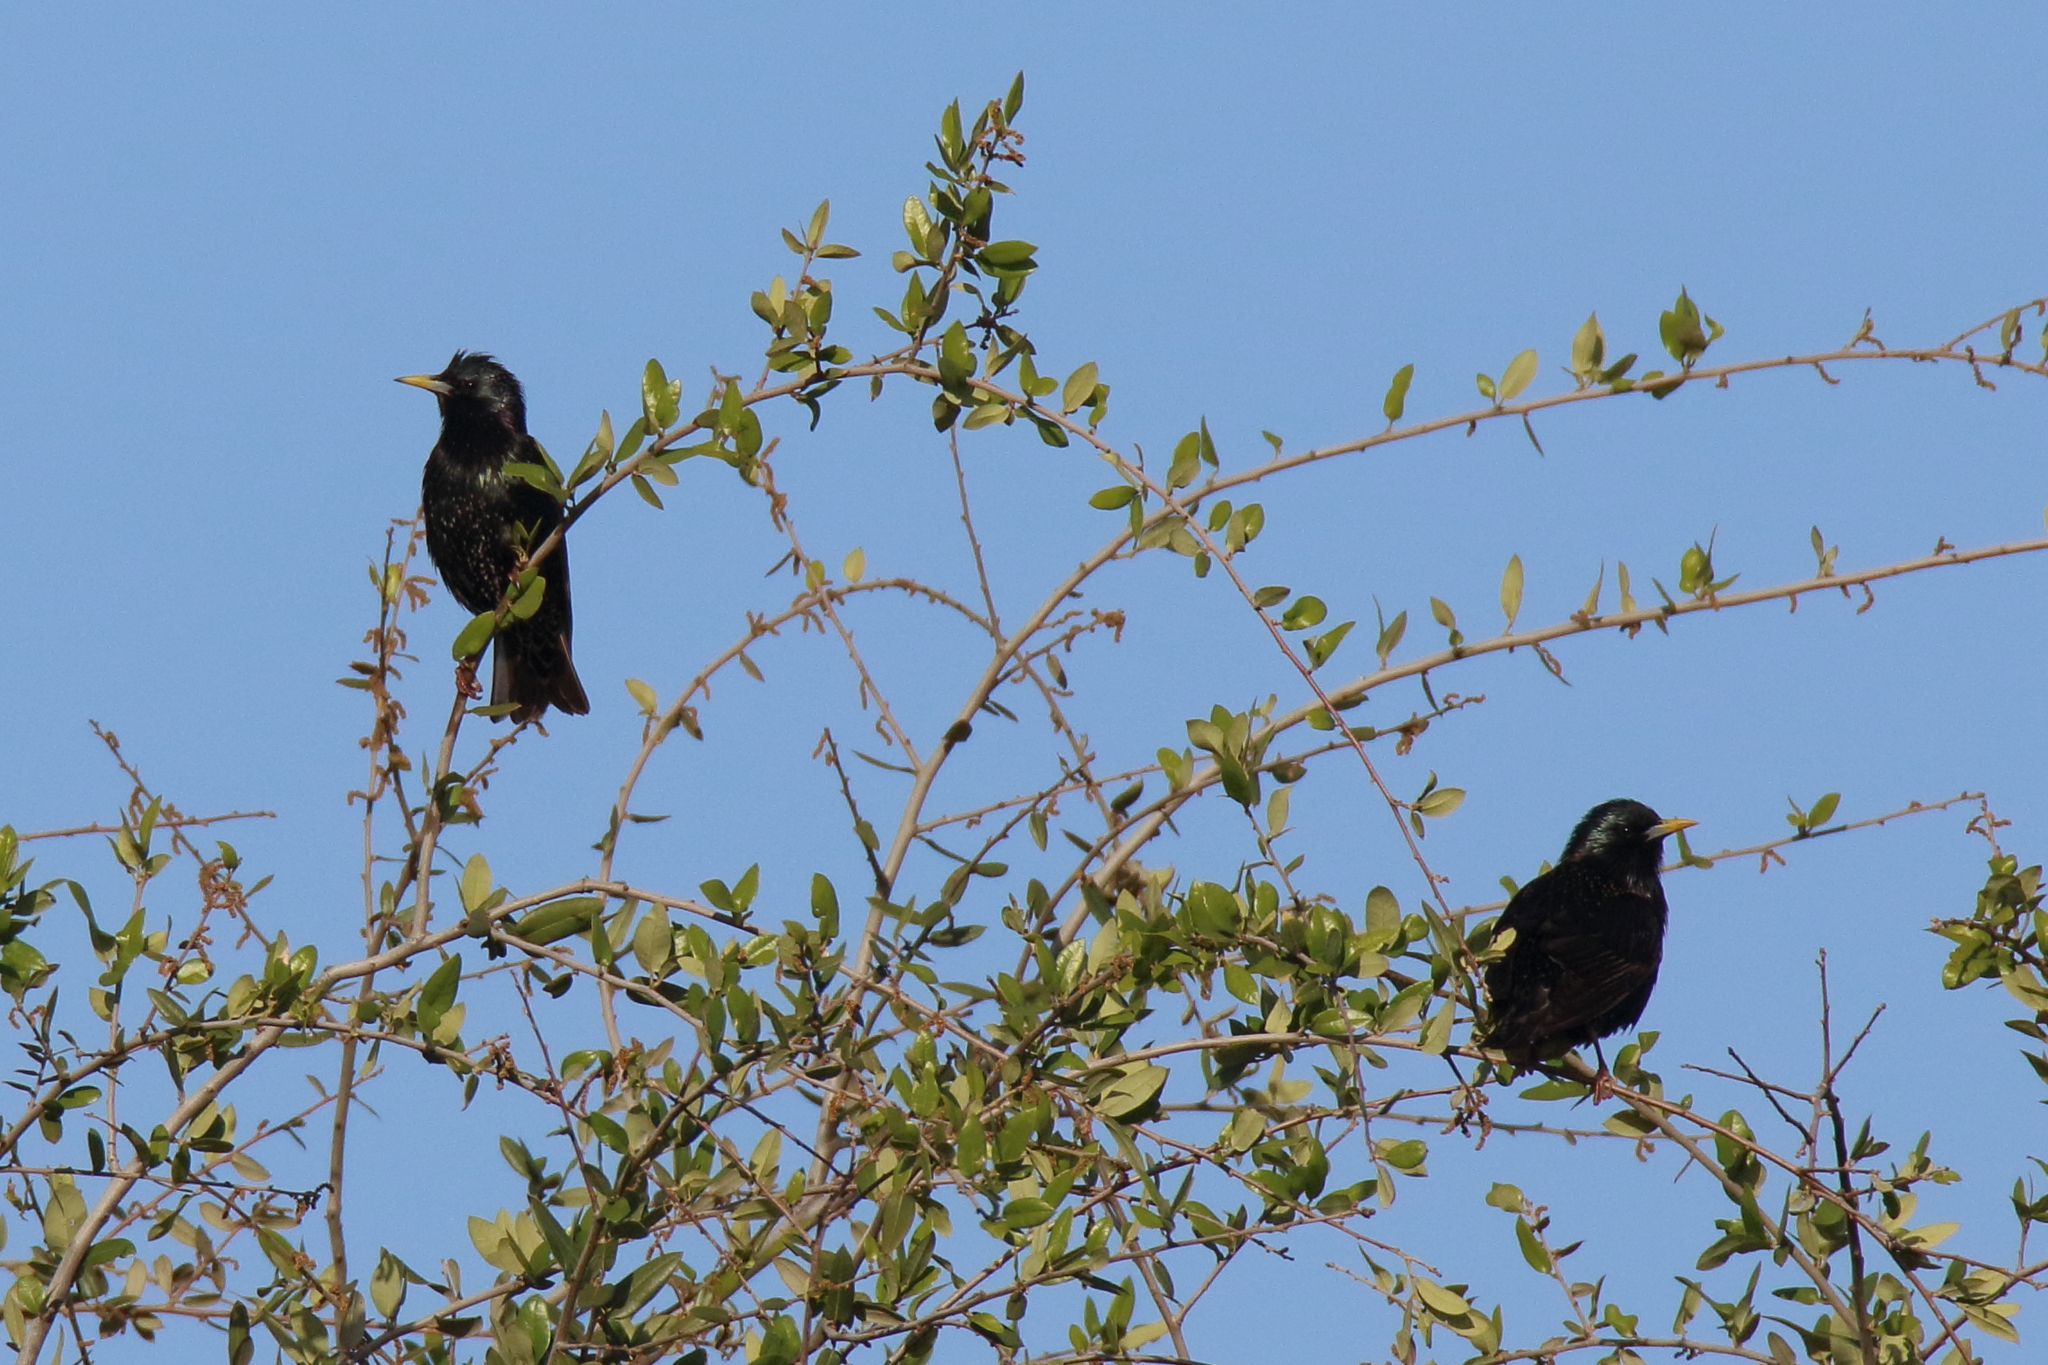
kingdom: Animalia
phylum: Chordata
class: Aves
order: Passeriformes
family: Sturnidae
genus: Sturnus
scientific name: Sturnus vulgaris
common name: Common starling
